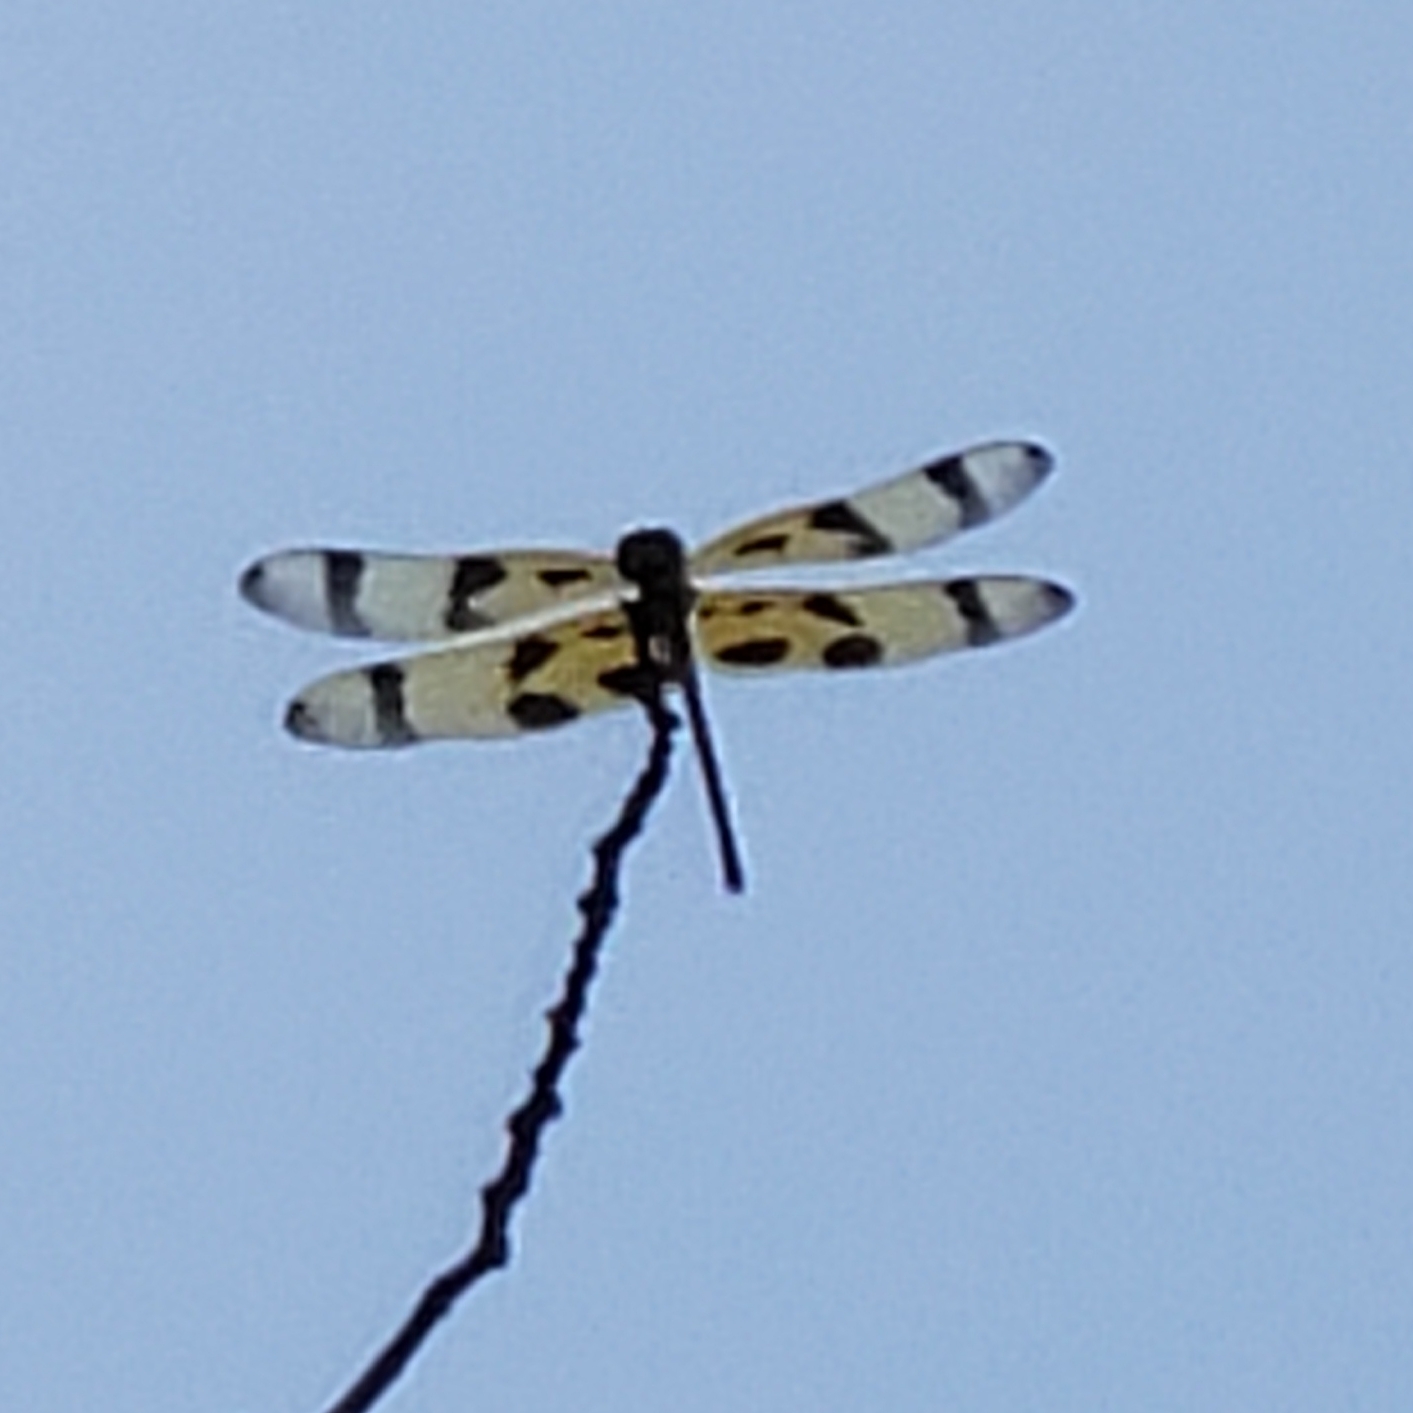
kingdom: Animalia
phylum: Arthropoda
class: Insecta
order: Odonata
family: Libellulidae
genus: Celithemis
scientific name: Celithemis eponina
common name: Halloween pennant
